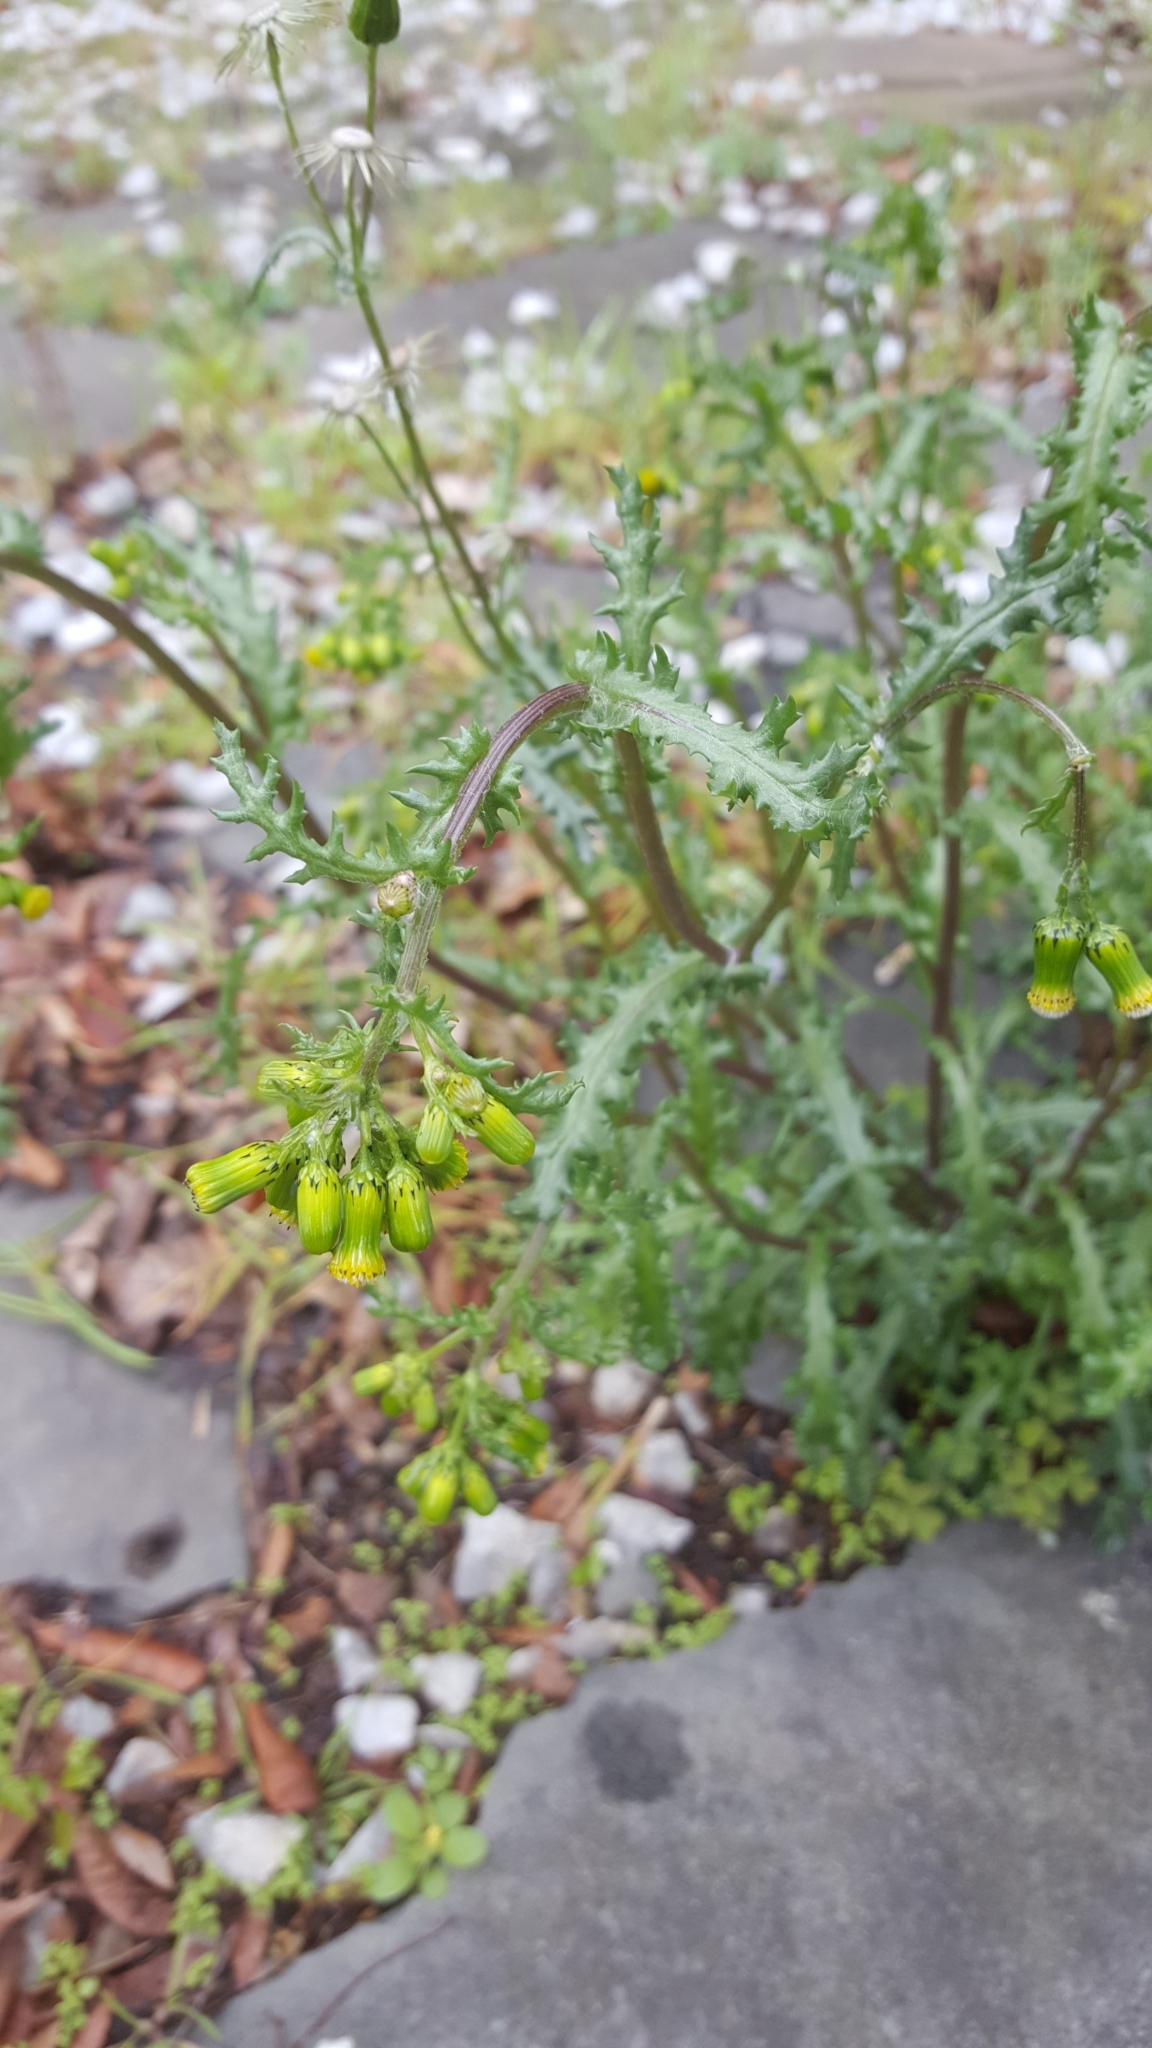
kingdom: Plantae
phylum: Tracheophyta
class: Magnoliopsida
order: Asterales
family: Asteraceae
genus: Senecio
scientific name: Senecio vulgaris
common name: Old-man-in-the-spring
